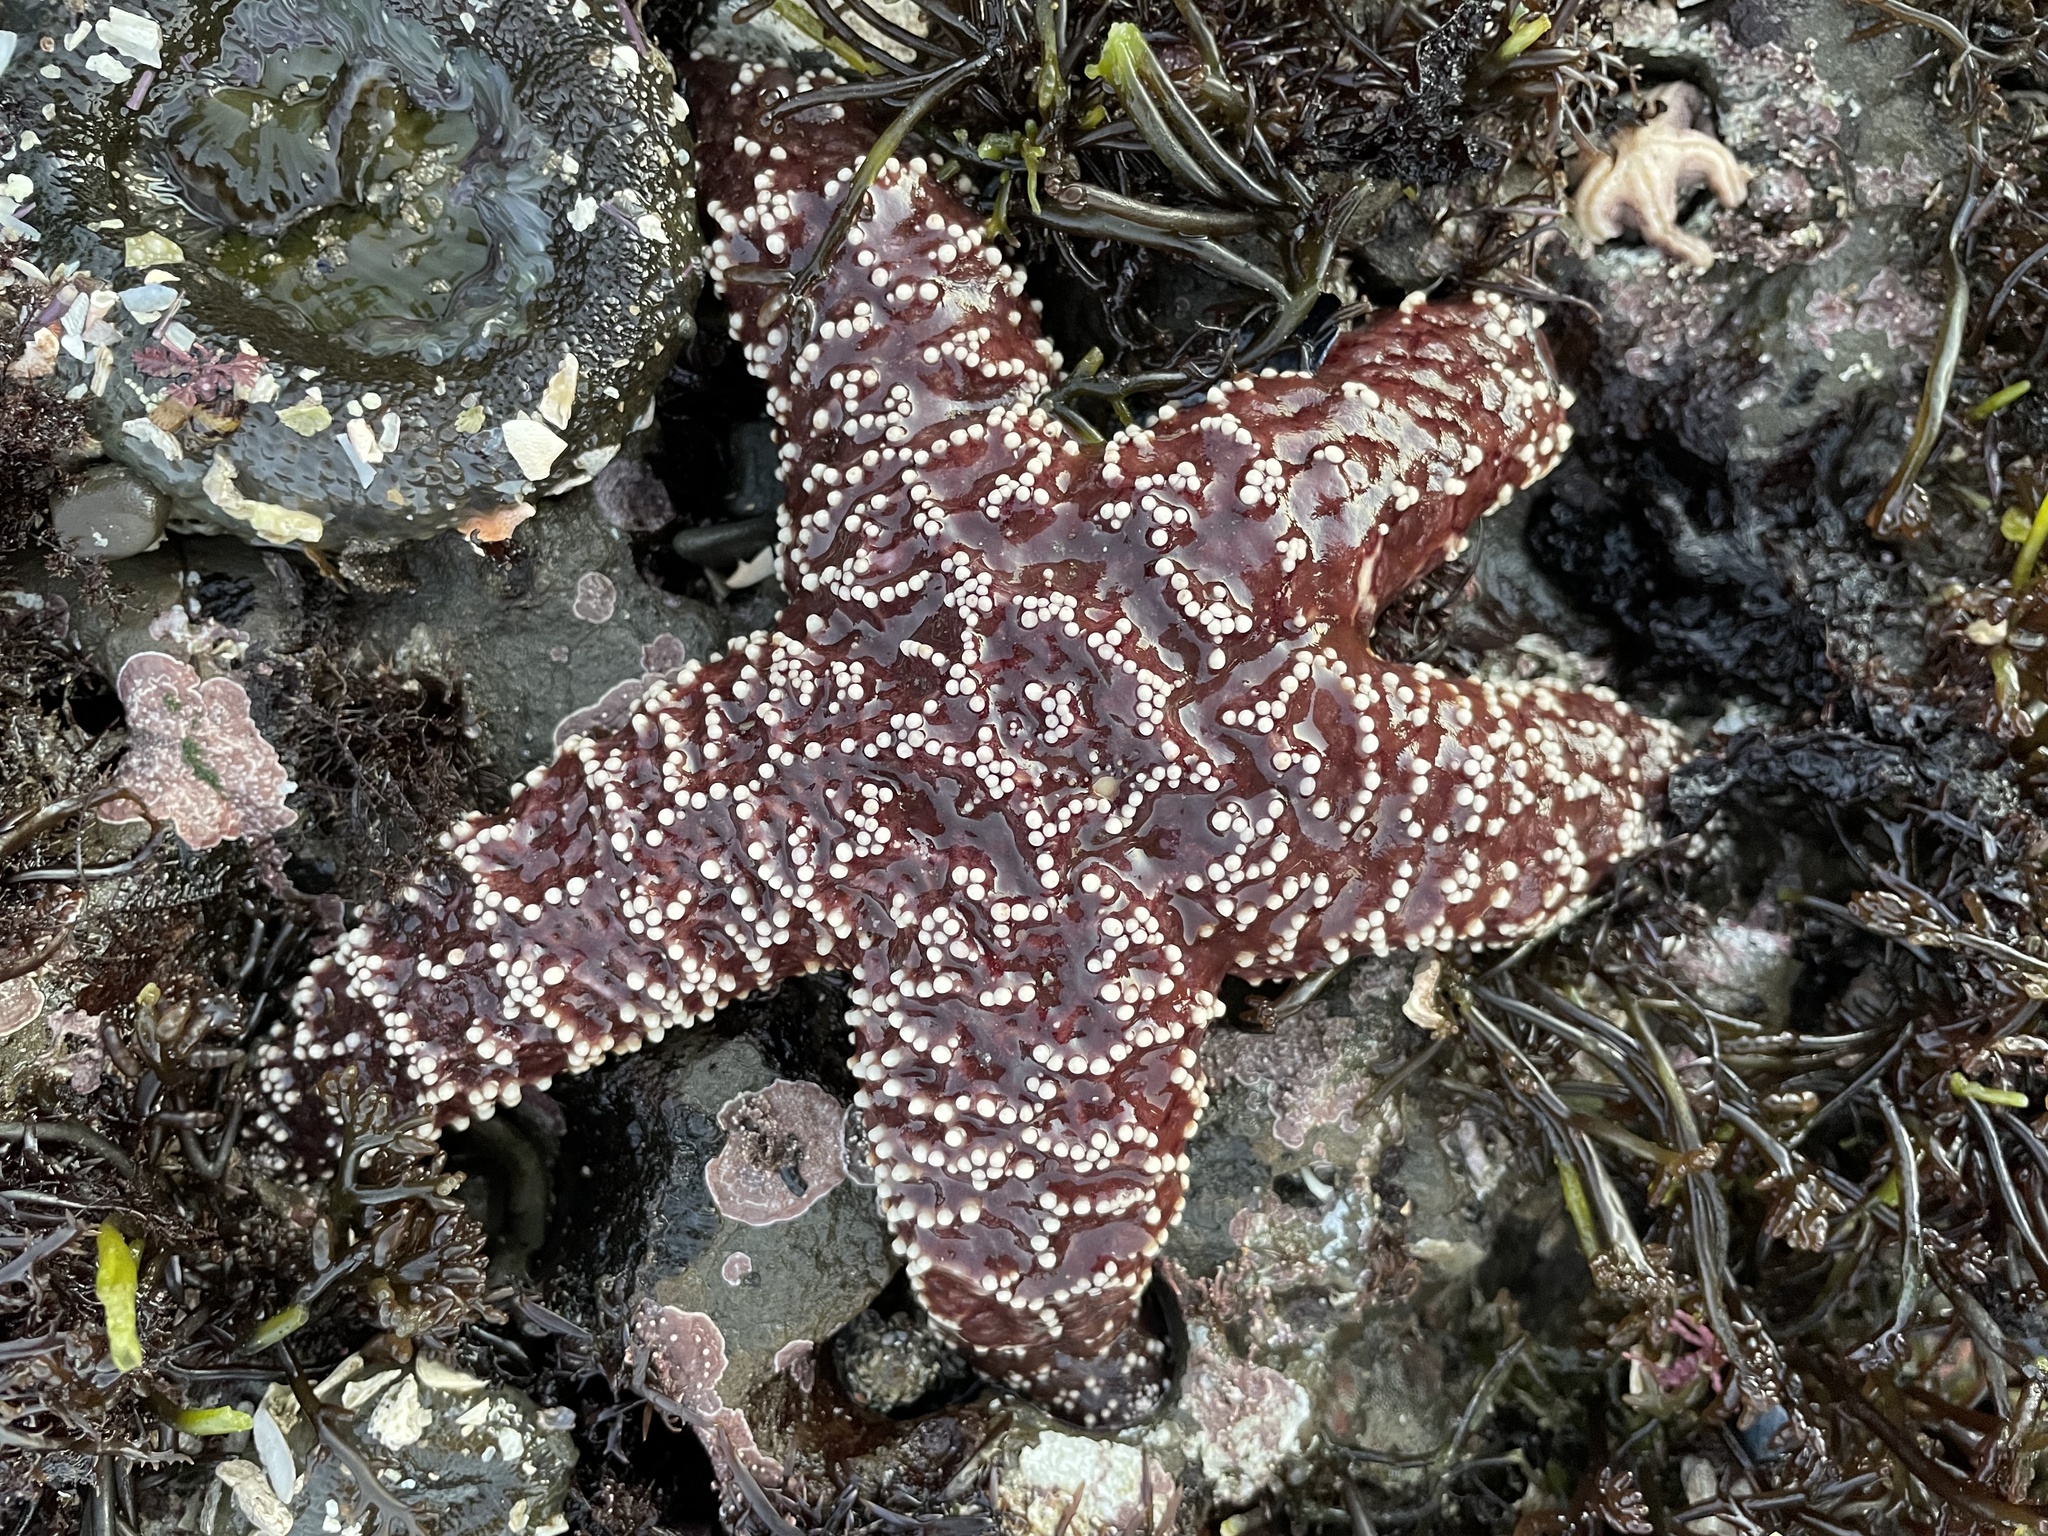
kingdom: Animalia
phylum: Echinodermata
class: Asteroidea
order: Forcipulatida
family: Asteriidae
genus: Pisaster
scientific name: Pisaster ochraceus
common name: Ochre stars
